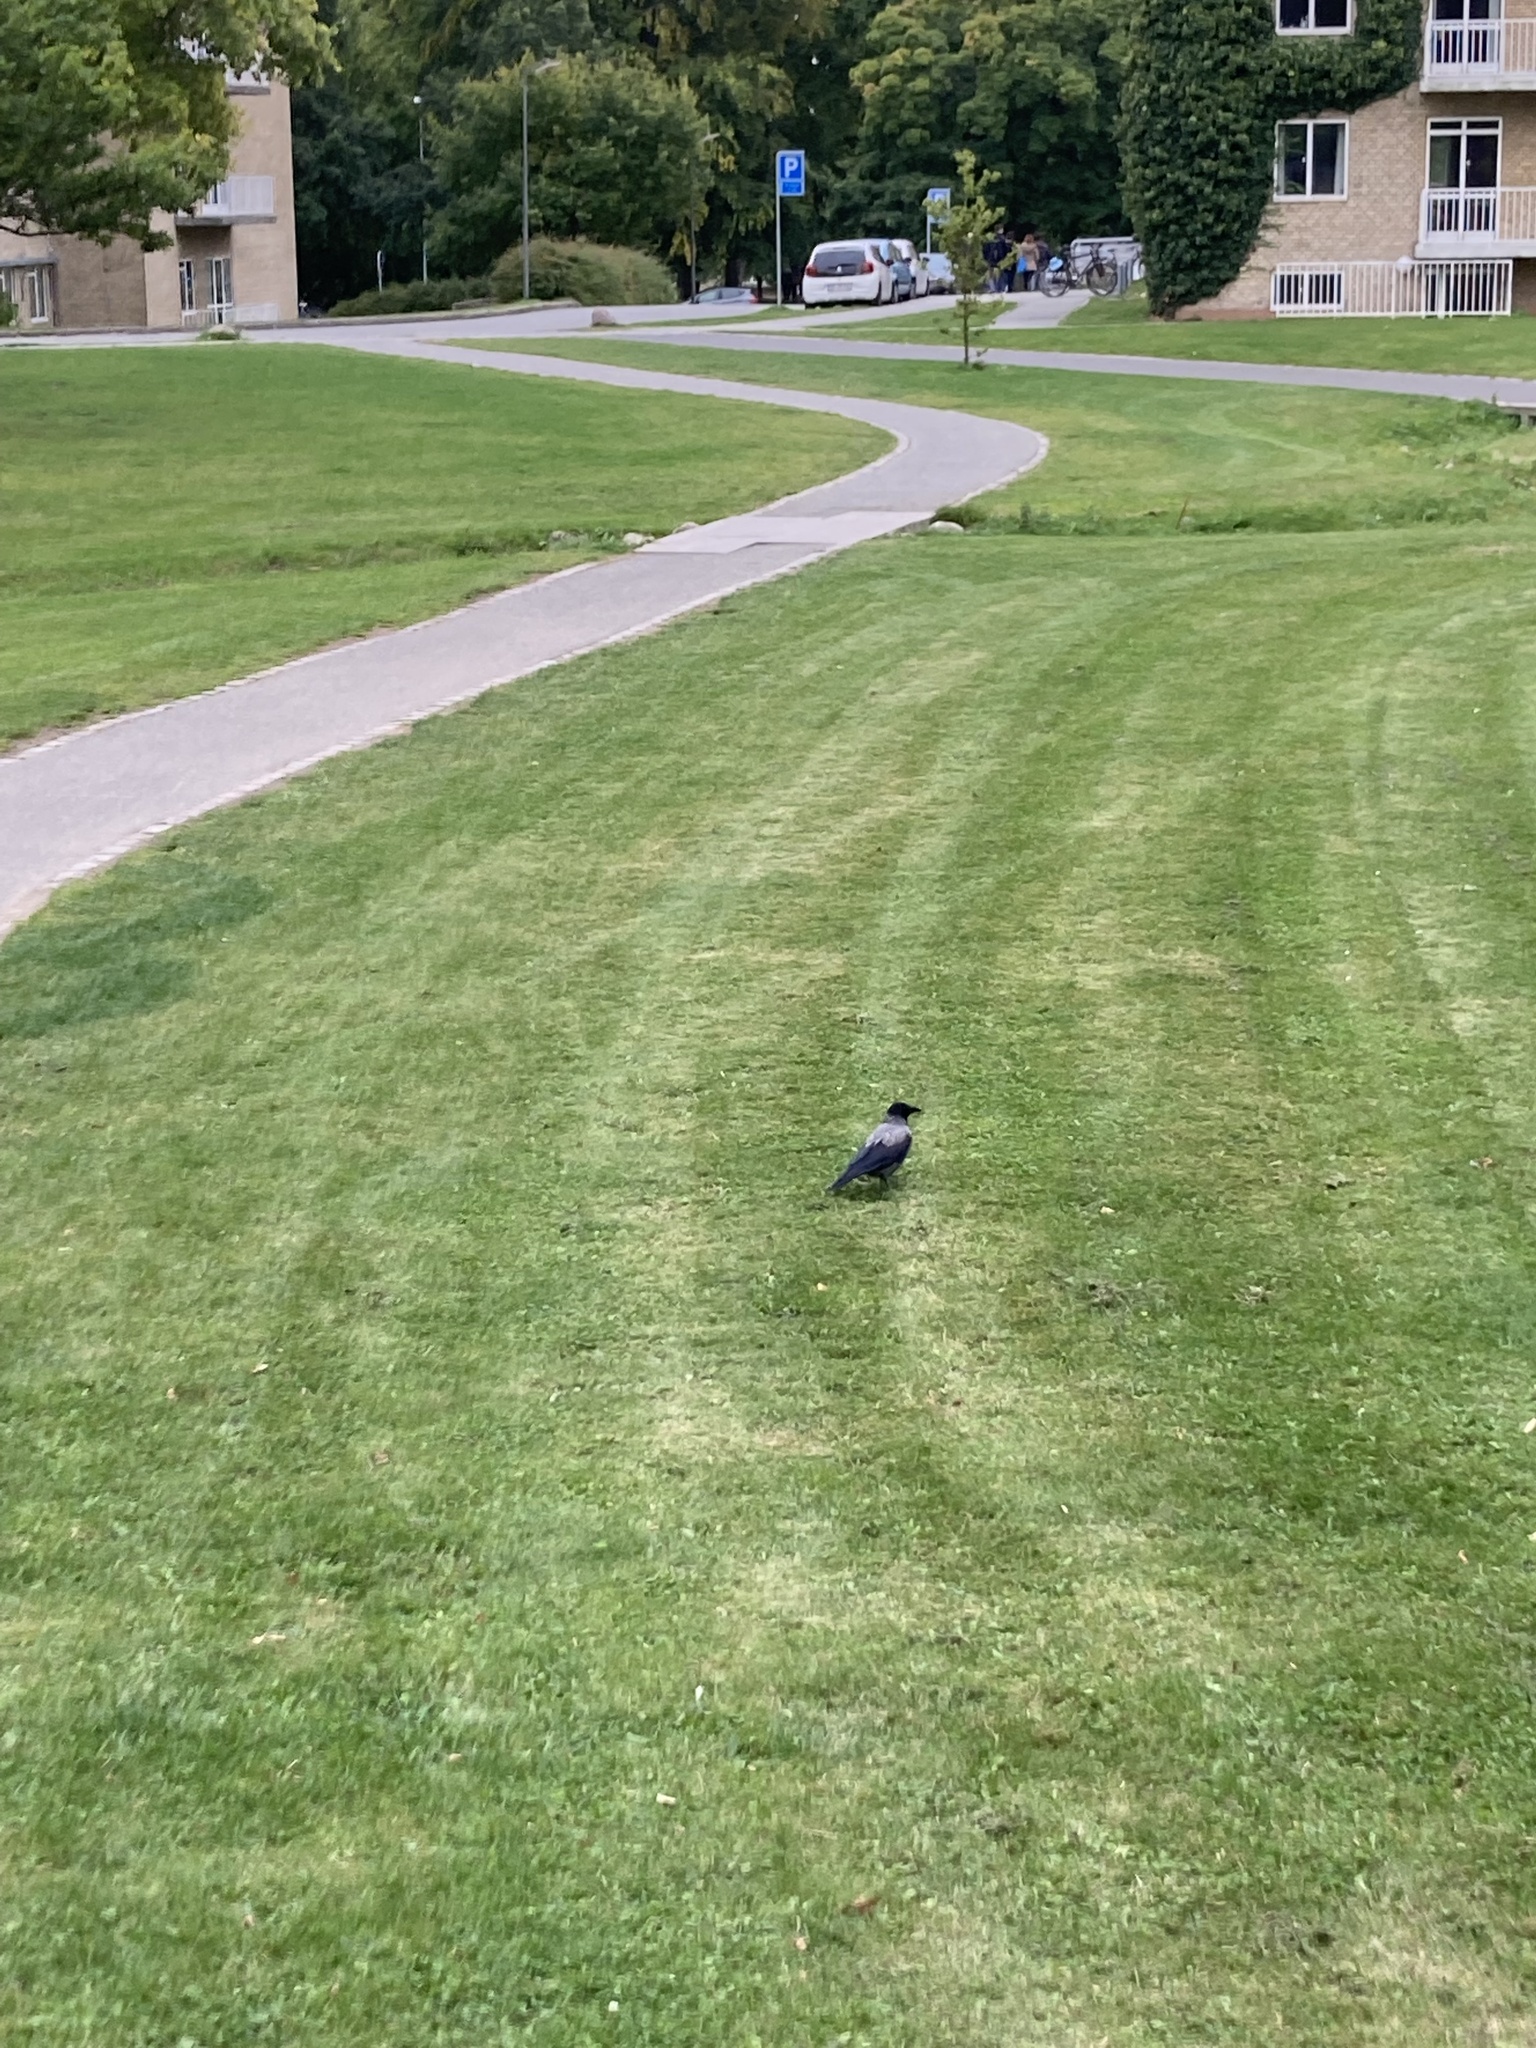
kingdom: Animalia
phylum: Chordata
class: Aves
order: Passeriformes
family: Corvidae
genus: Corvus
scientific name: Corvus cornix
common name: Hooded crow
